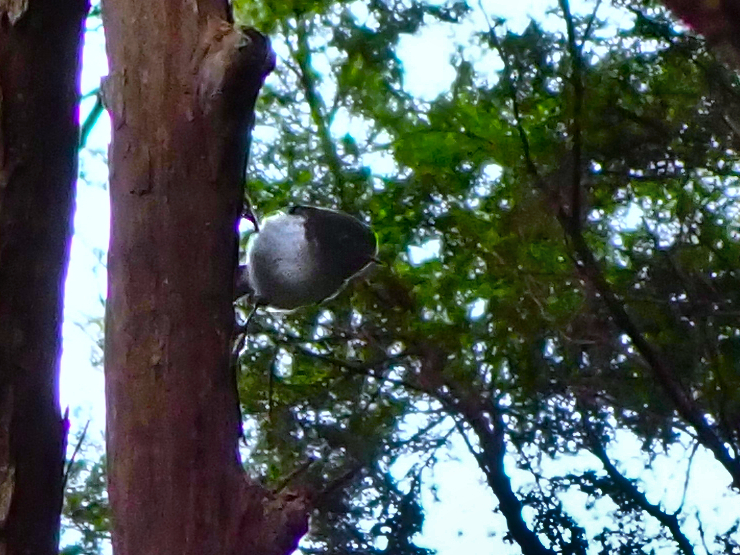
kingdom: Animalia
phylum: Chordata
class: Aves
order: Passeriformes
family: Petroicidae
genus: Petroica
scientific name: Petroica macrocephala
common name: Tomtit
